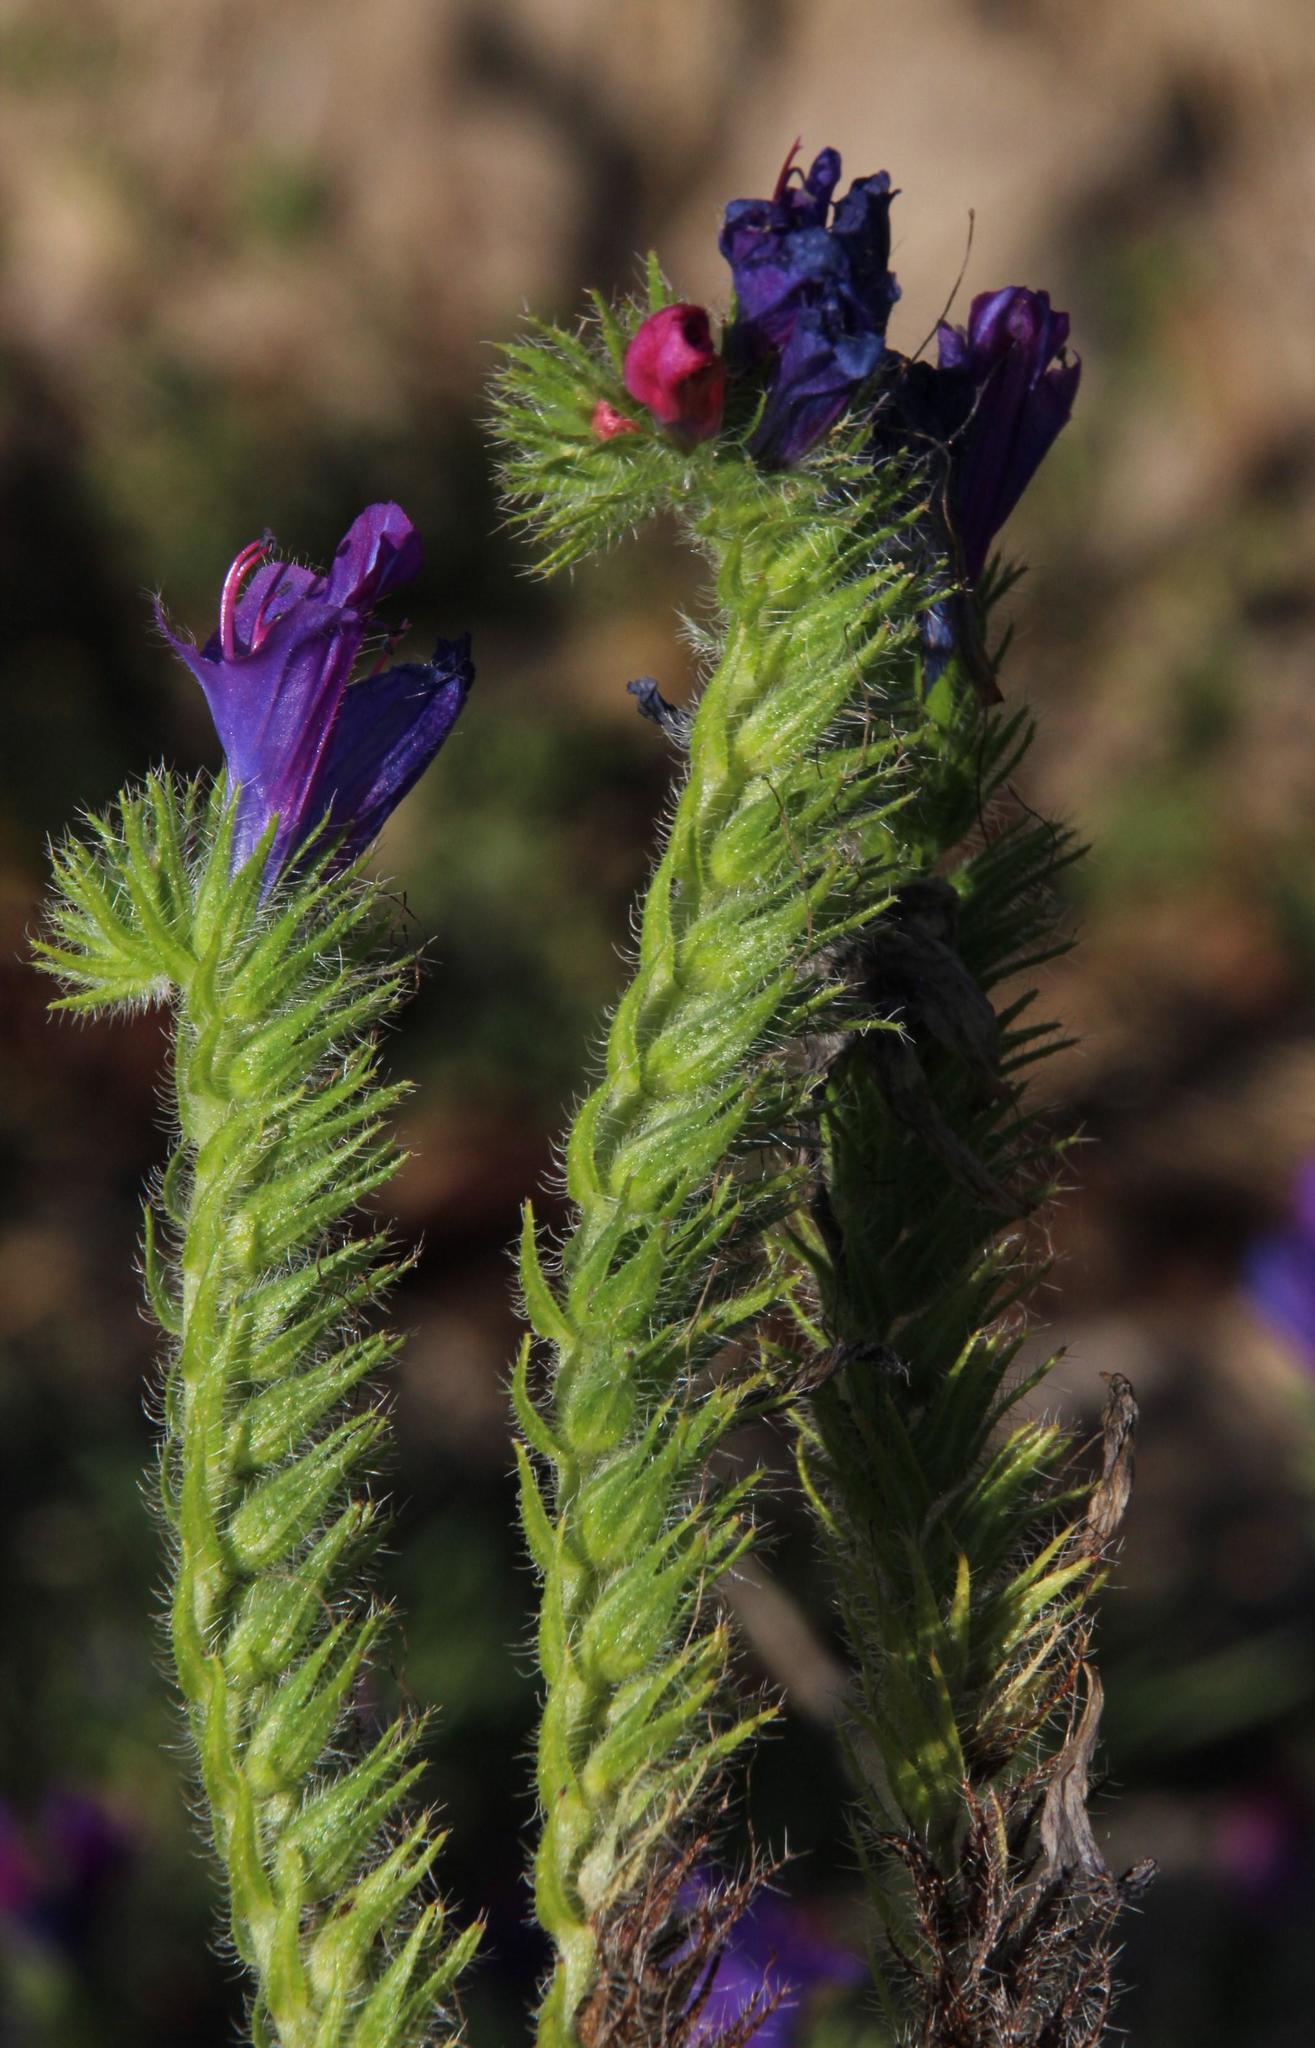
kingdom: Plantae
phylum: Tracheophyta
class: Magnoliopsida
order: Boraginales
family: Boraginaceae
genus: Echium
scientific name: Echium plantagineum
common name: Purple viper's-bugloss
